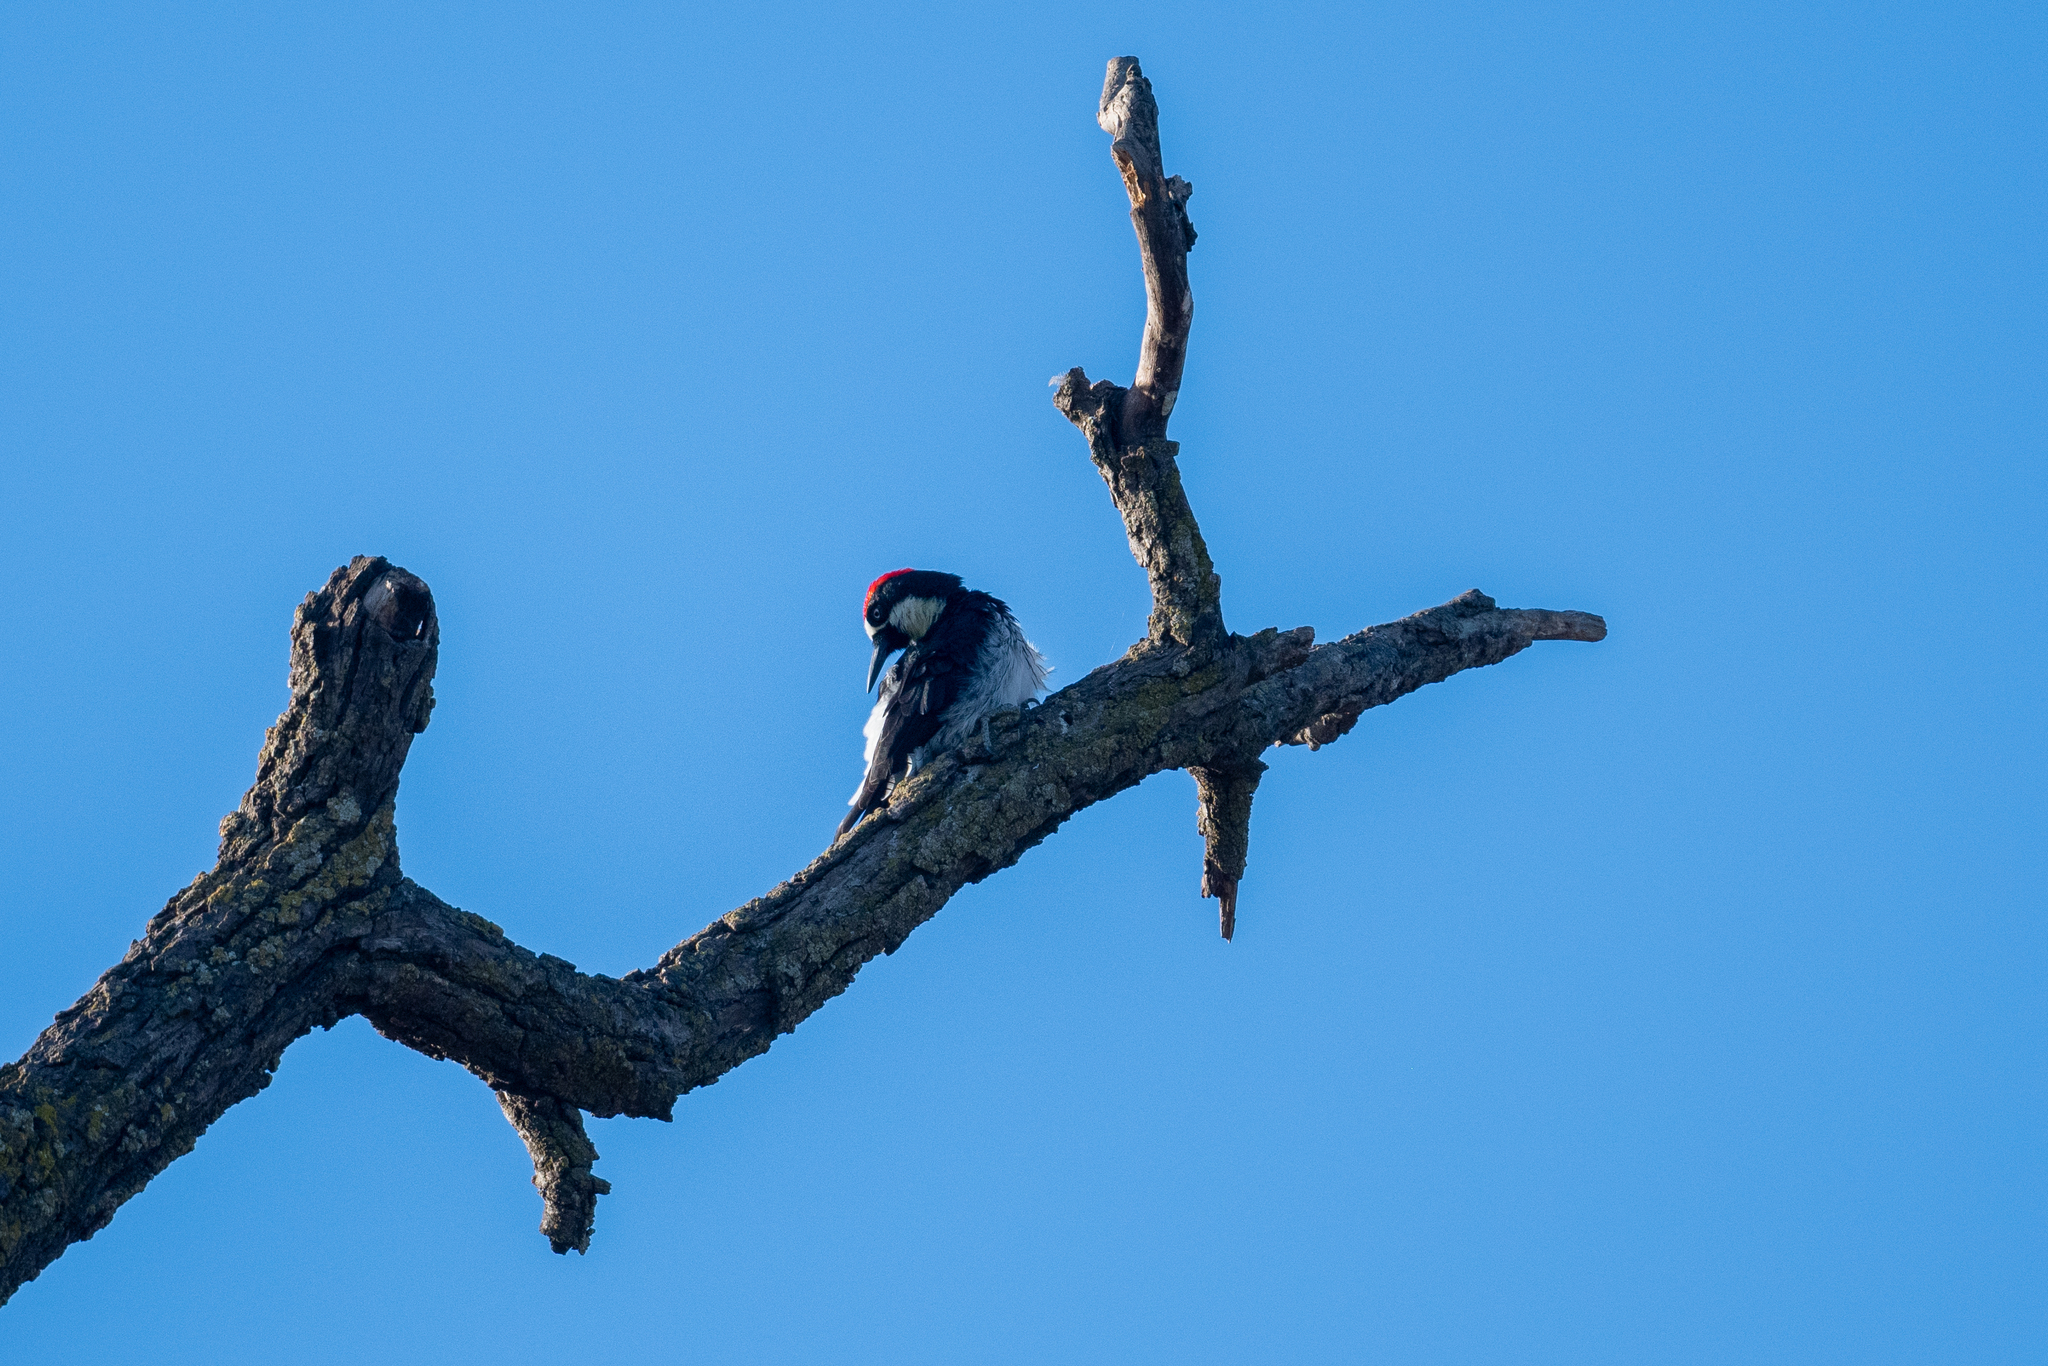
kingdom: Animalia
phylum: Chordata
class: Aves
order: Piciformes
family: Picidae
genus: Melanerpes
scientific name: Melanerpes formicivorus
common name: Acorn woodpecker
